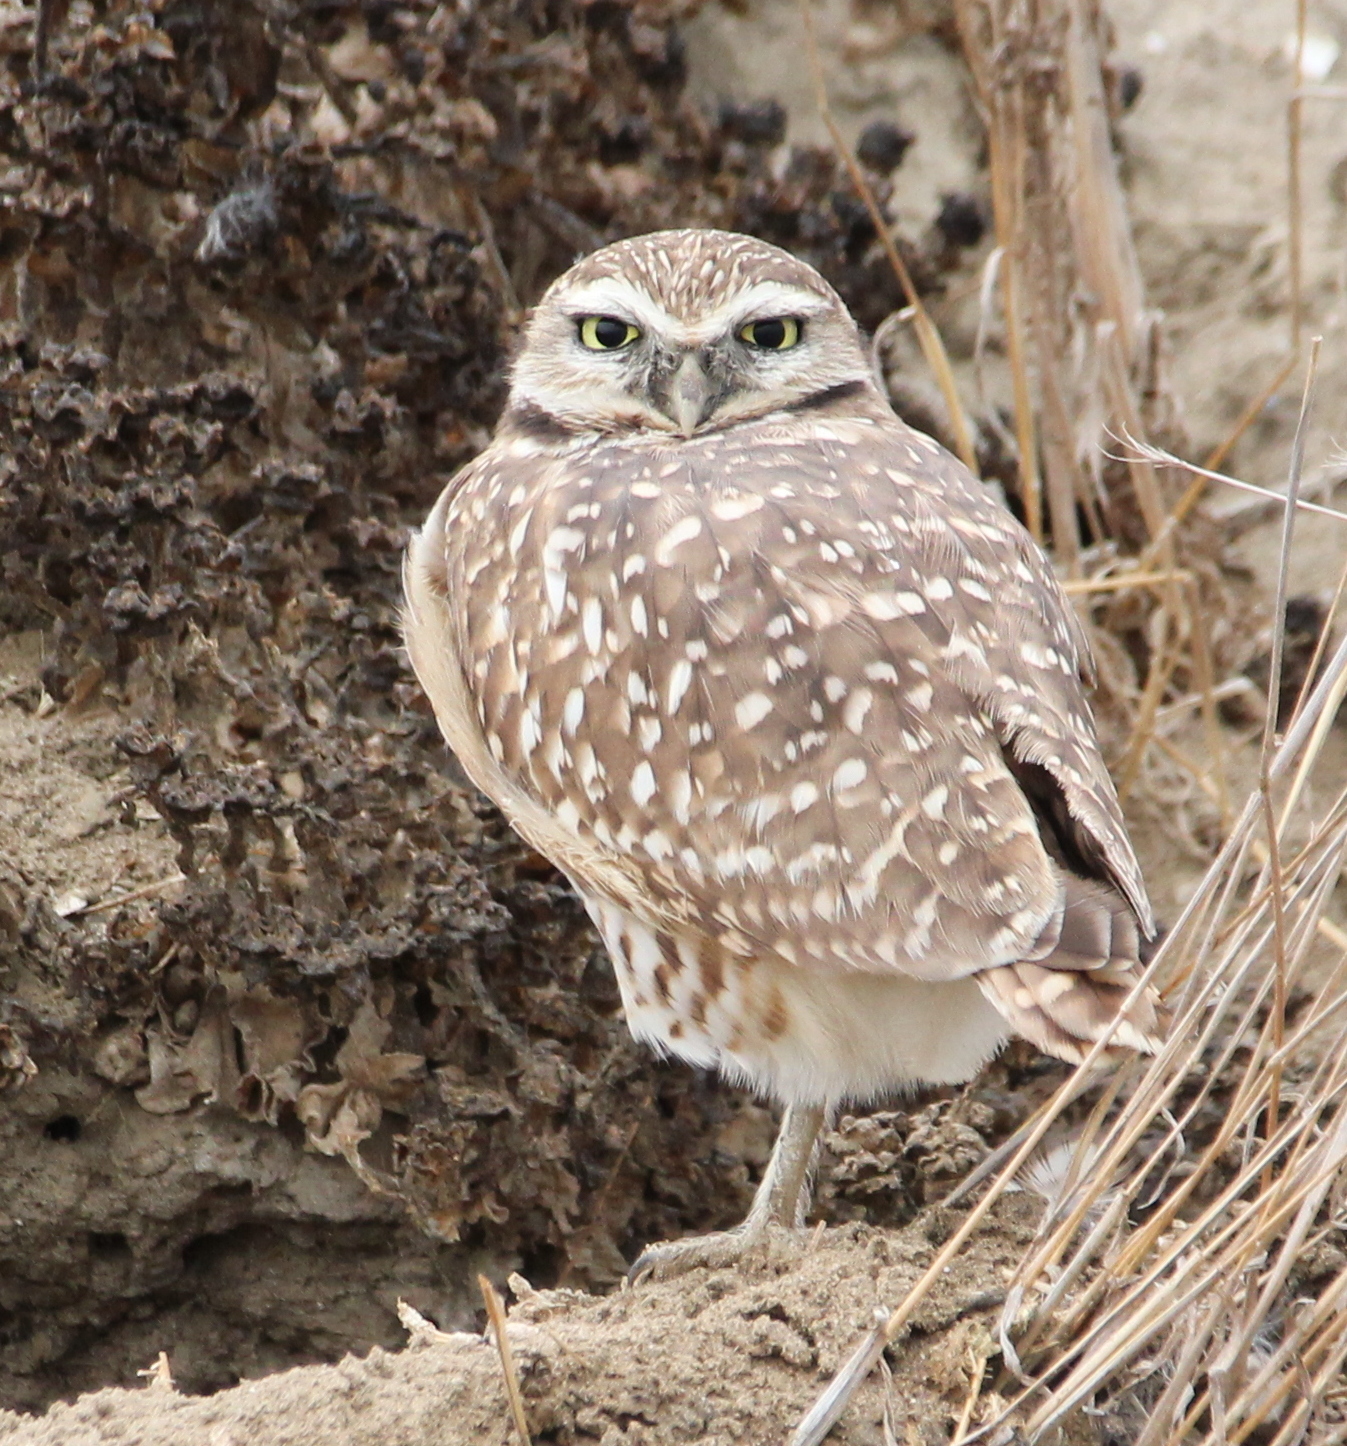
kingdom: Animalia
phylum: Chordata
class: Aves
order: Strigiformes
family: Strigidae
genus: Athene
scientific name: Athene cunicularia
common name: Burrowing owl
